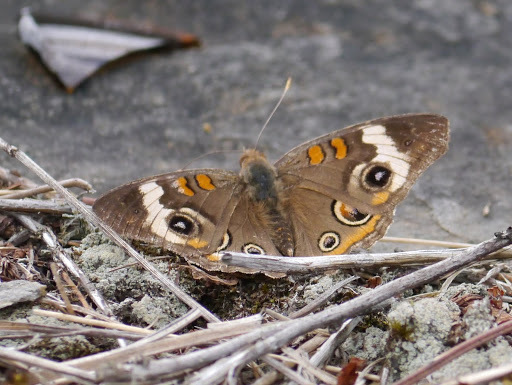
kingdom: Animalia
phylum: Arthropoda
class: Insecta
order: Lepidoptera
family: Nymphalidae
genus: Junonia
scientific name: Junonia coenia
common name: Common buckeye
